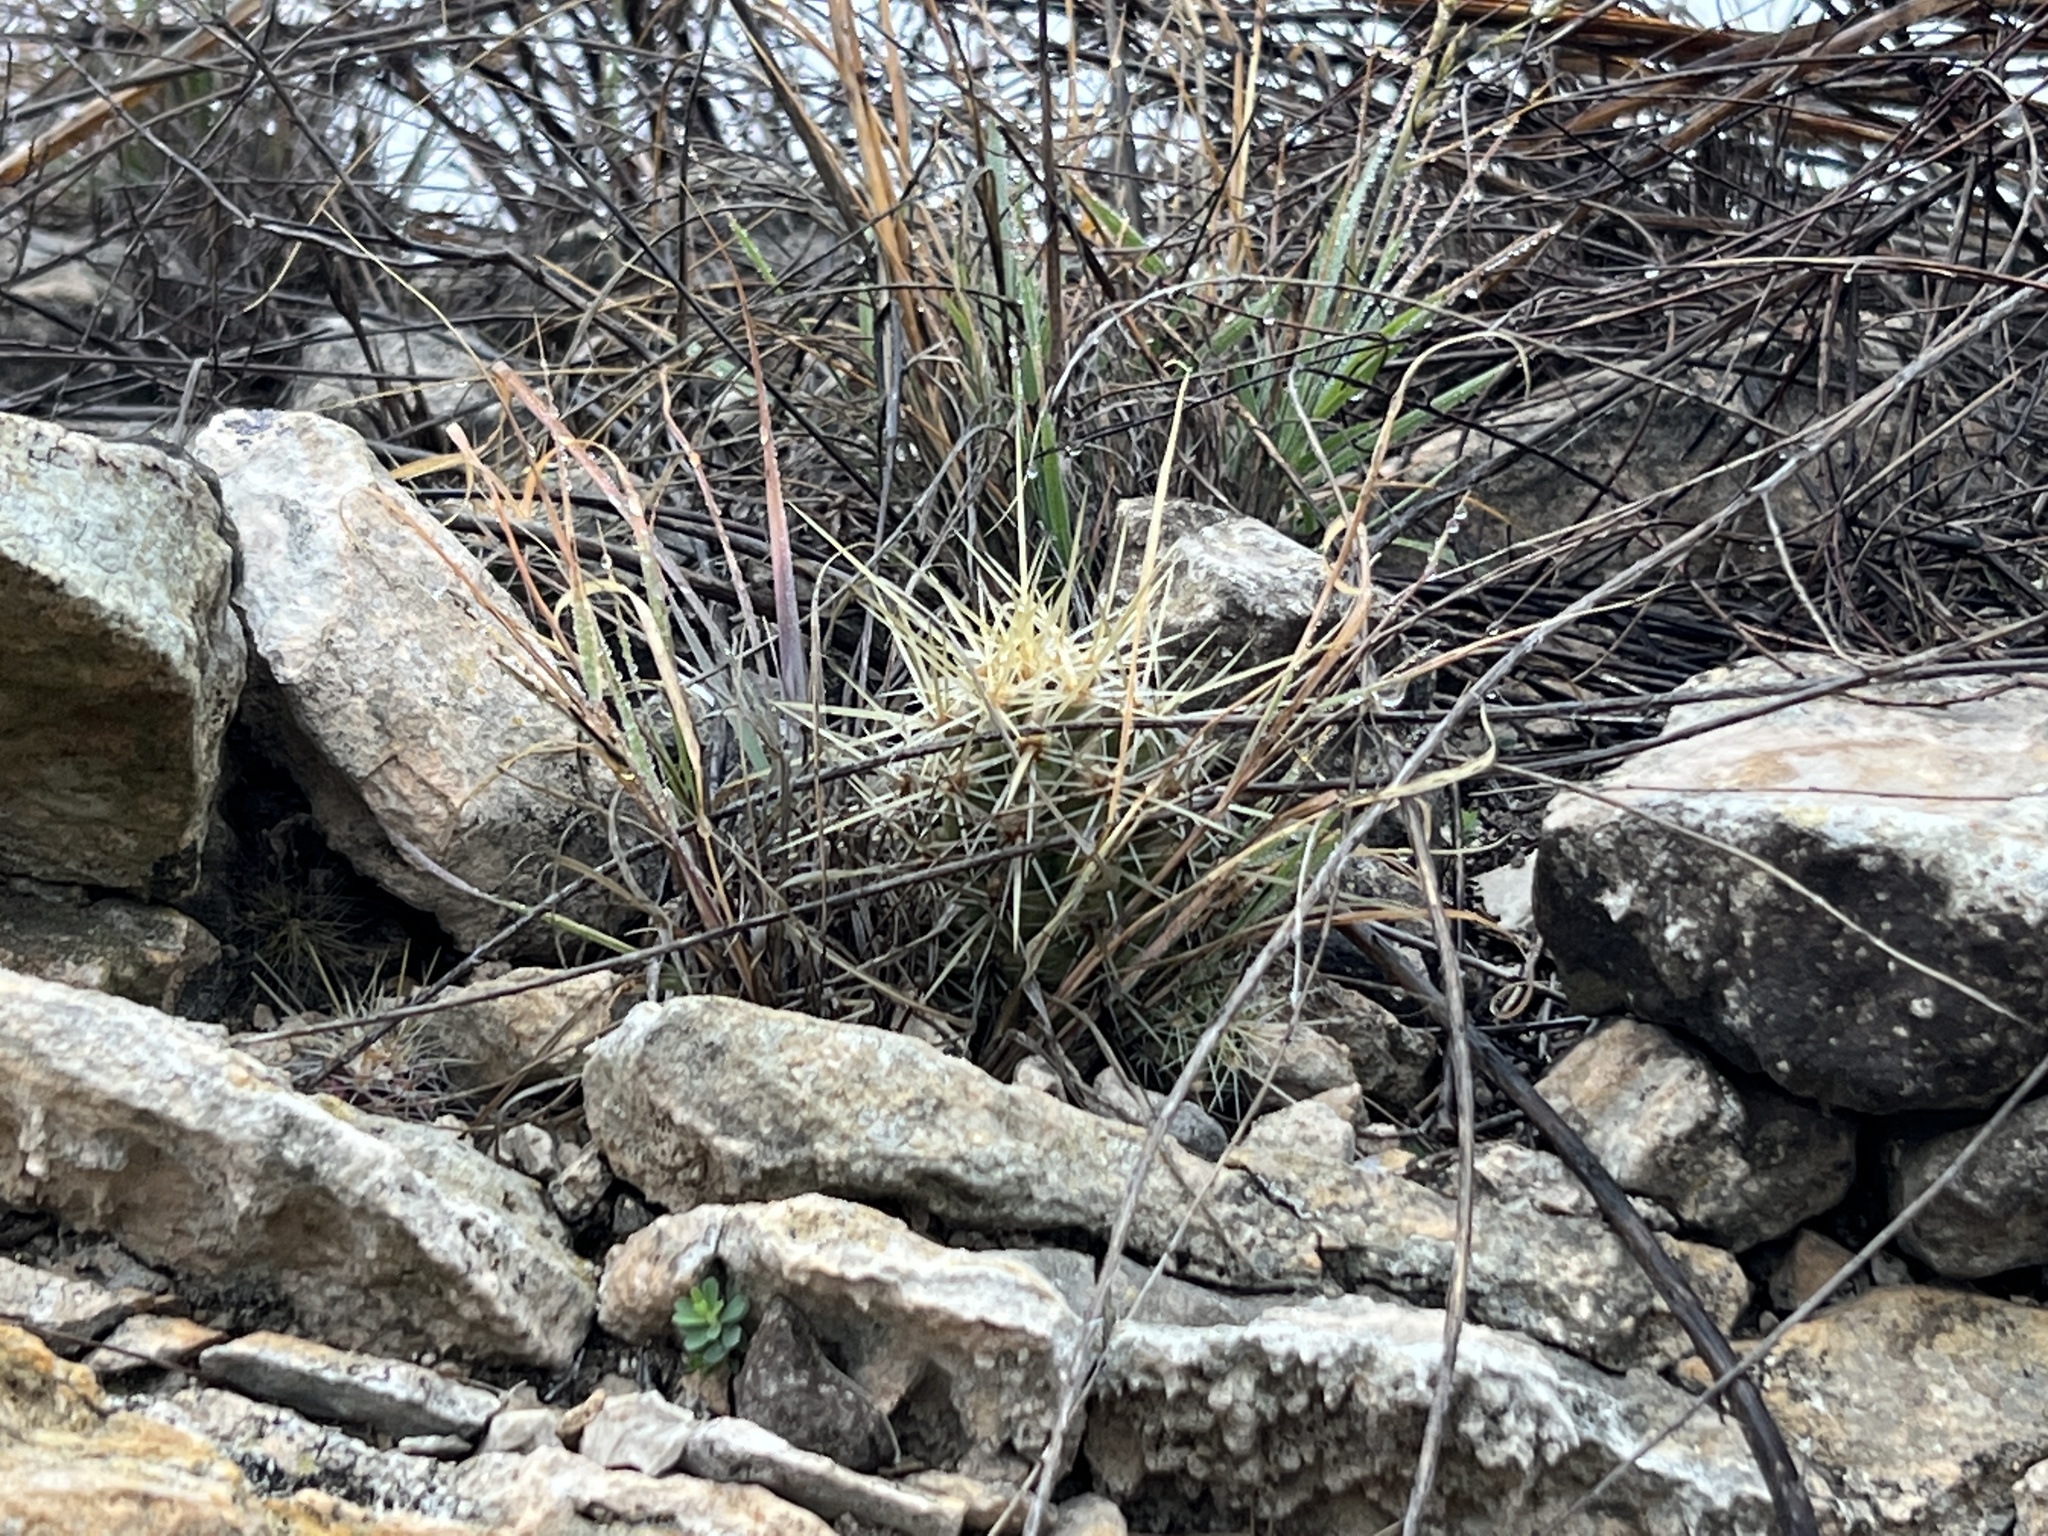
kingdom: Plantae
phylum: Tracheophyta
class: Magnoliopsida
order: Caryophyllales
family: Cactaceae
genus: Echinocereus
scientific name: Echinocereus enneacanthus
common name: Pitaya
